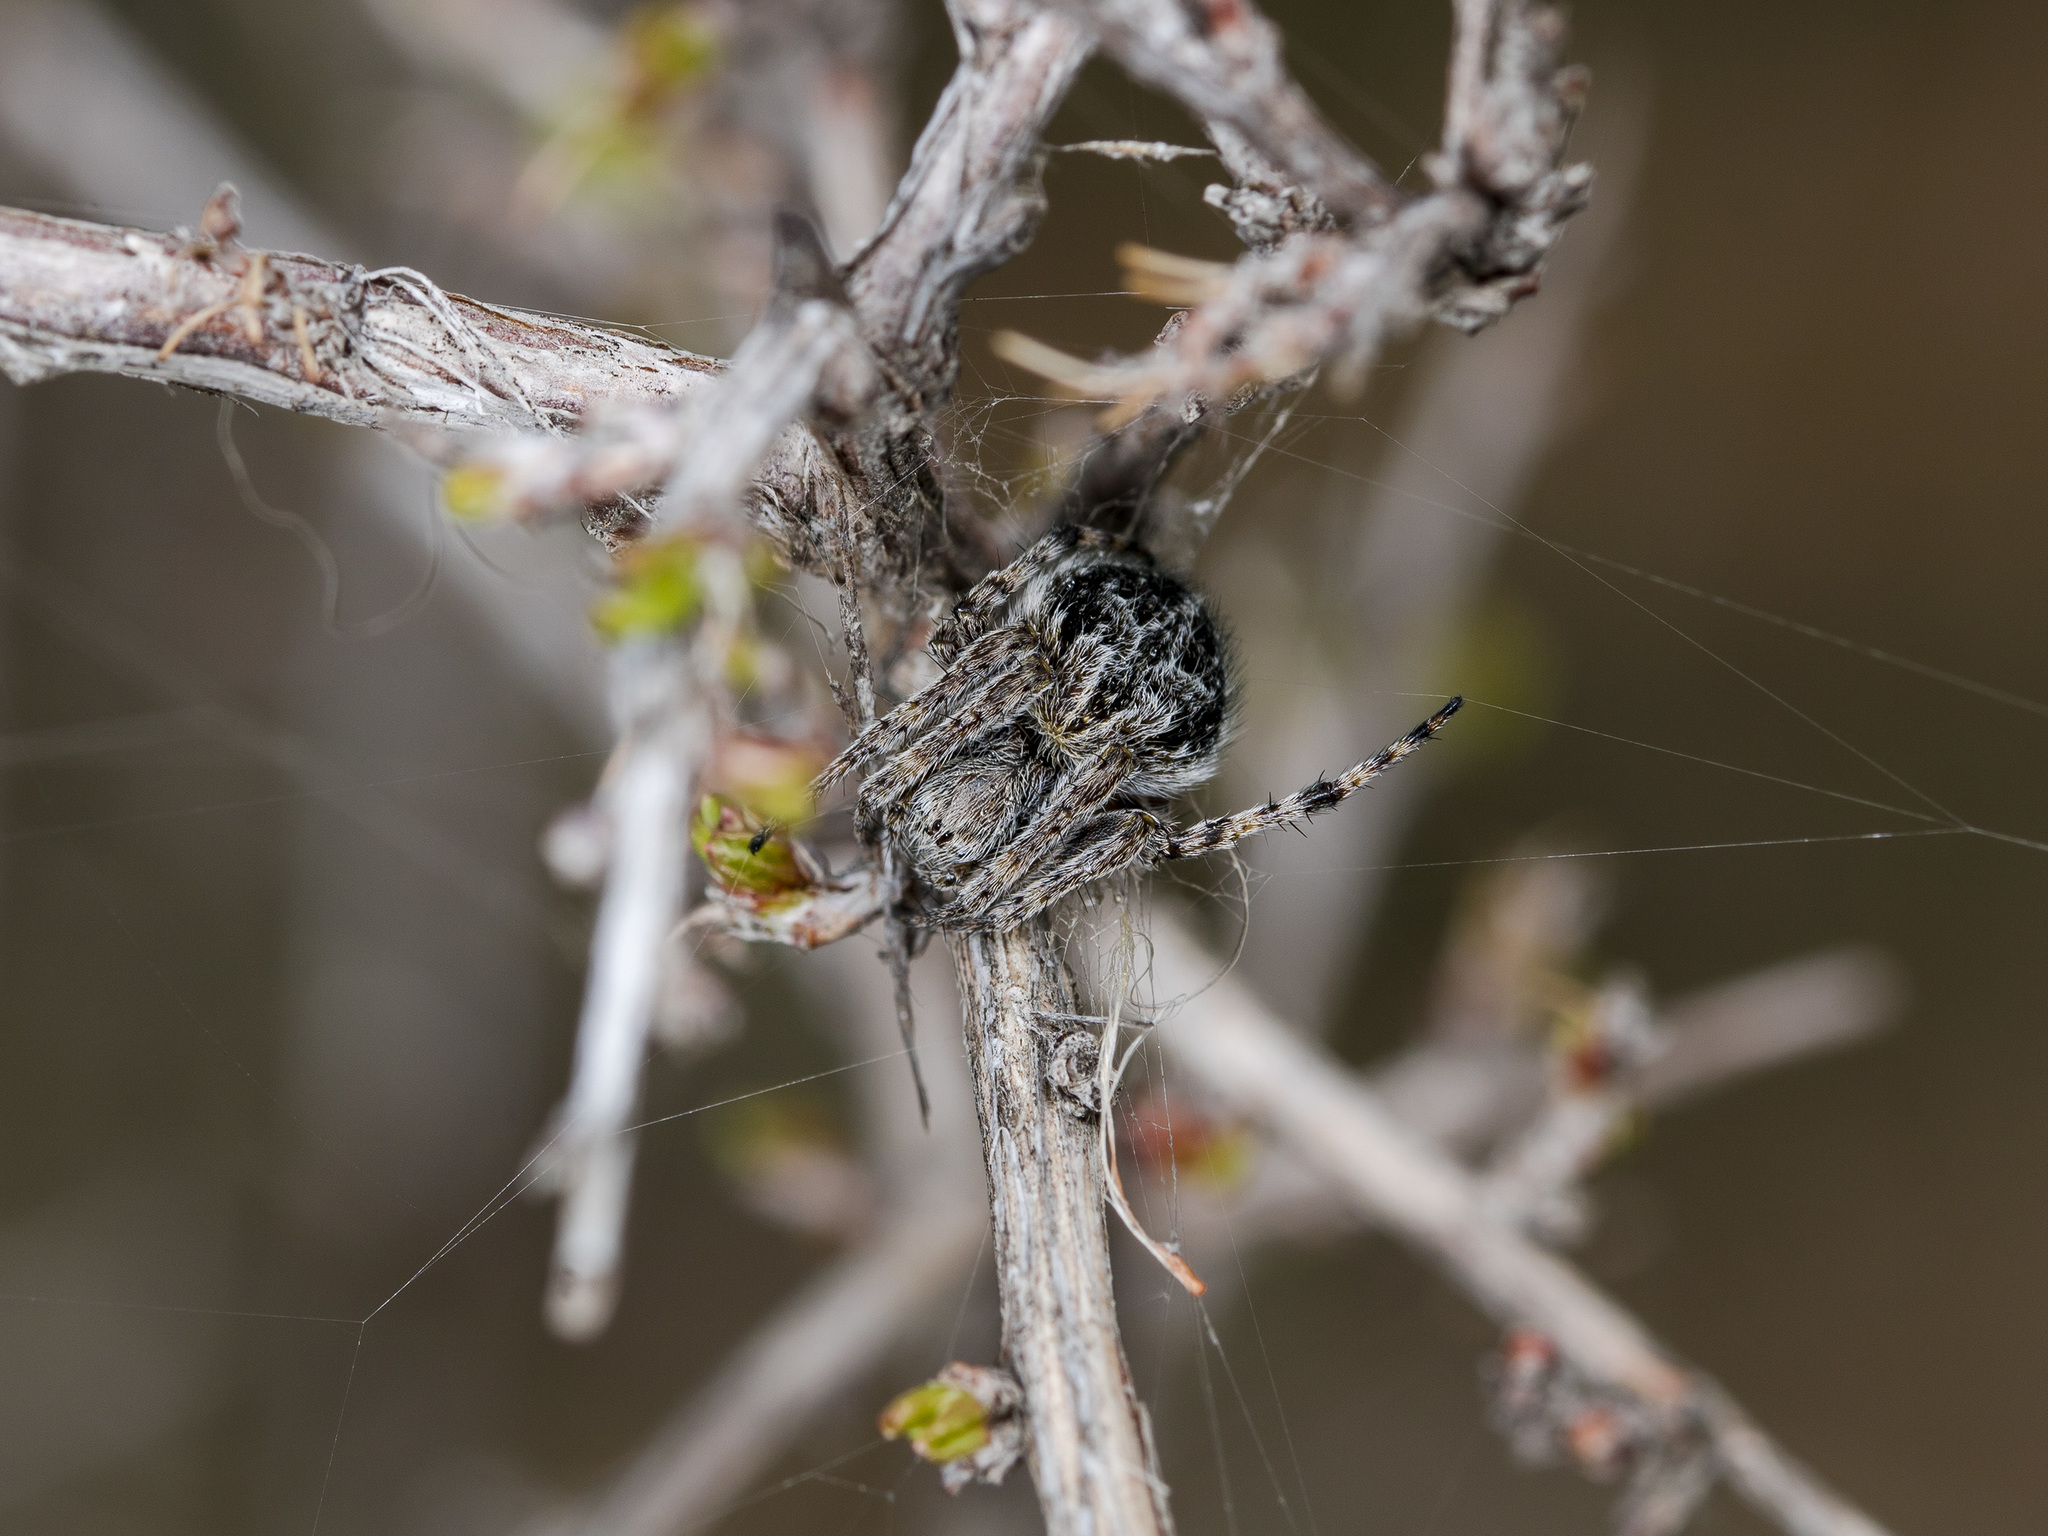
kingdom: Animalia
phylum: Arthropoda
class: Arachnida
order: Araneae
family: Araneidae
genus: Agalenatea
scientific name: Agalenatea redii
